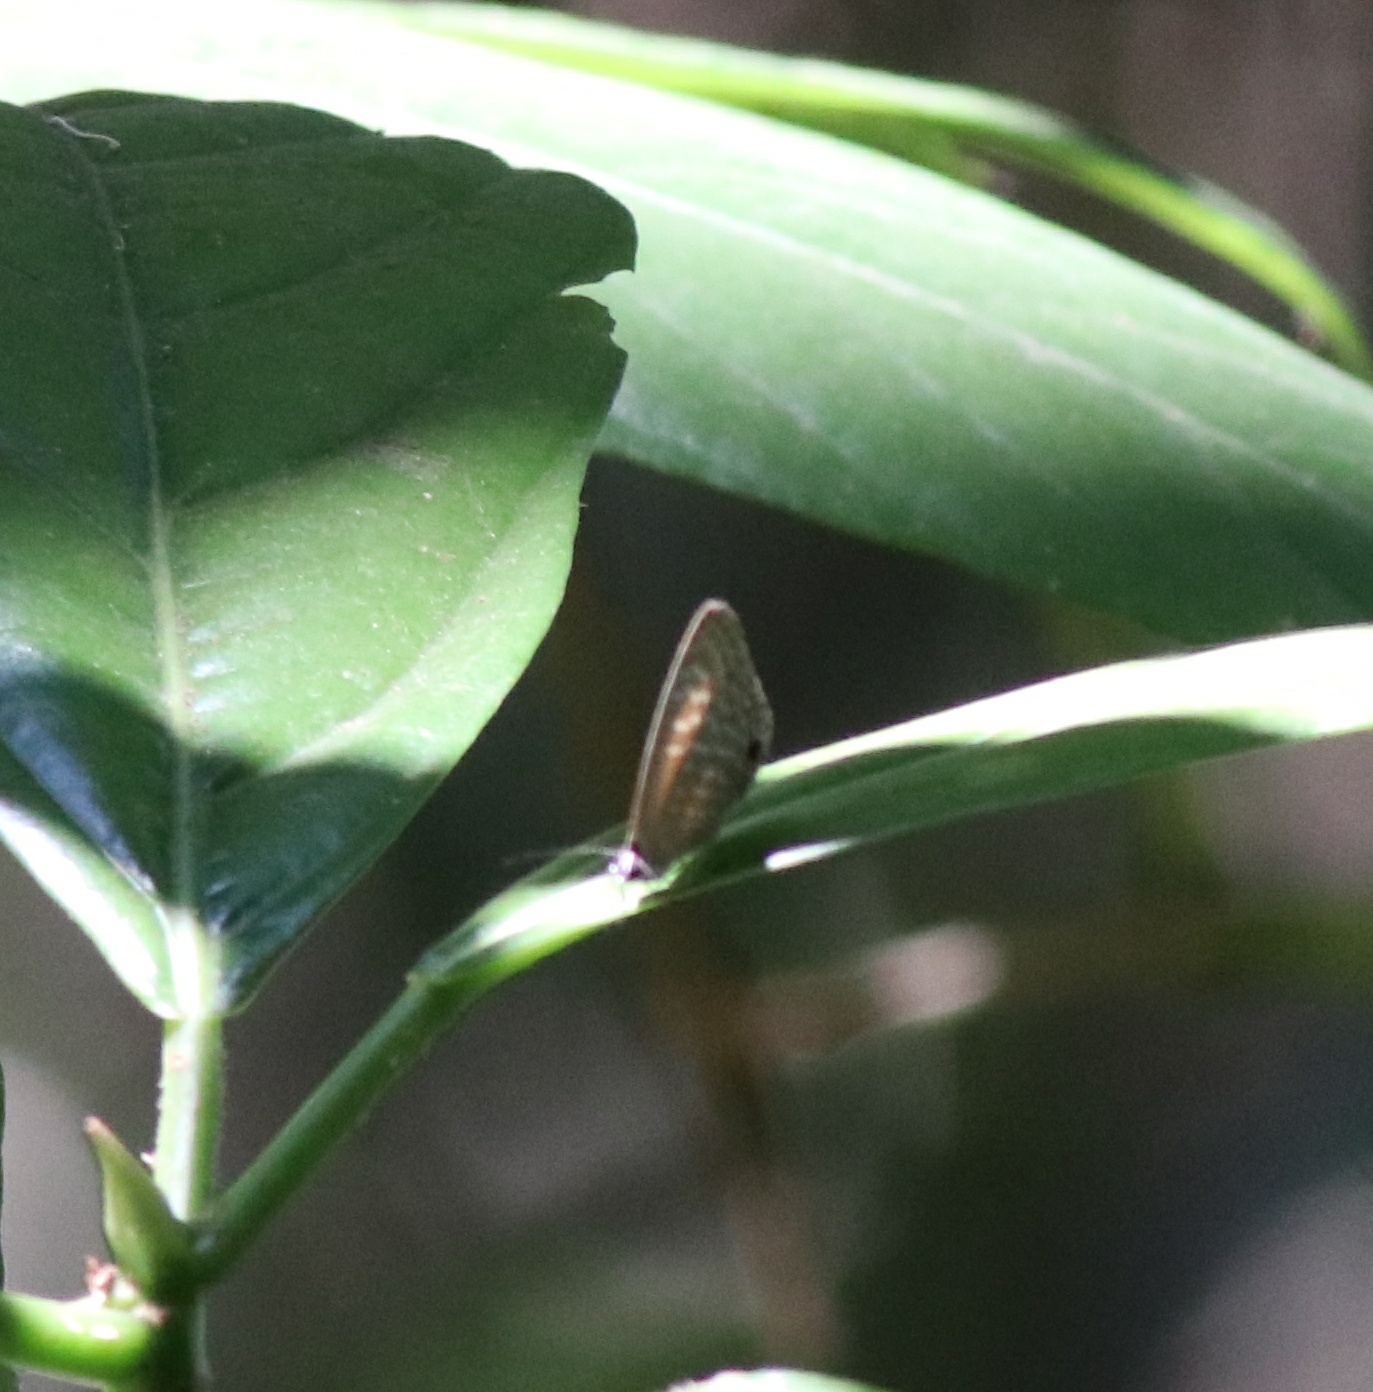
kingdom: Animalia
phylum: Arthropoda
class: Insecta
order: Lepidoptera
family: Lycaenidae
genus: Jamides
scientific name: Jamides alecto
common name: Metallic cerulean
